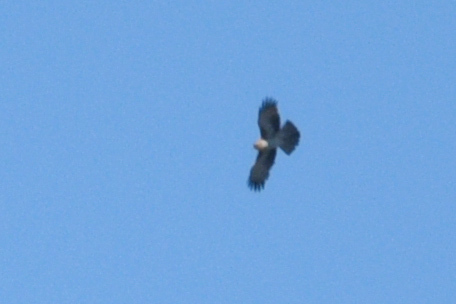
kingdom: Animalia
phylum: Chordata
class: Aves
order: Accipitriformes
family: Accipitridae
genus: Hieraaetus
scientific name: Hieraaetus morphnoides
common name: Little eagle
